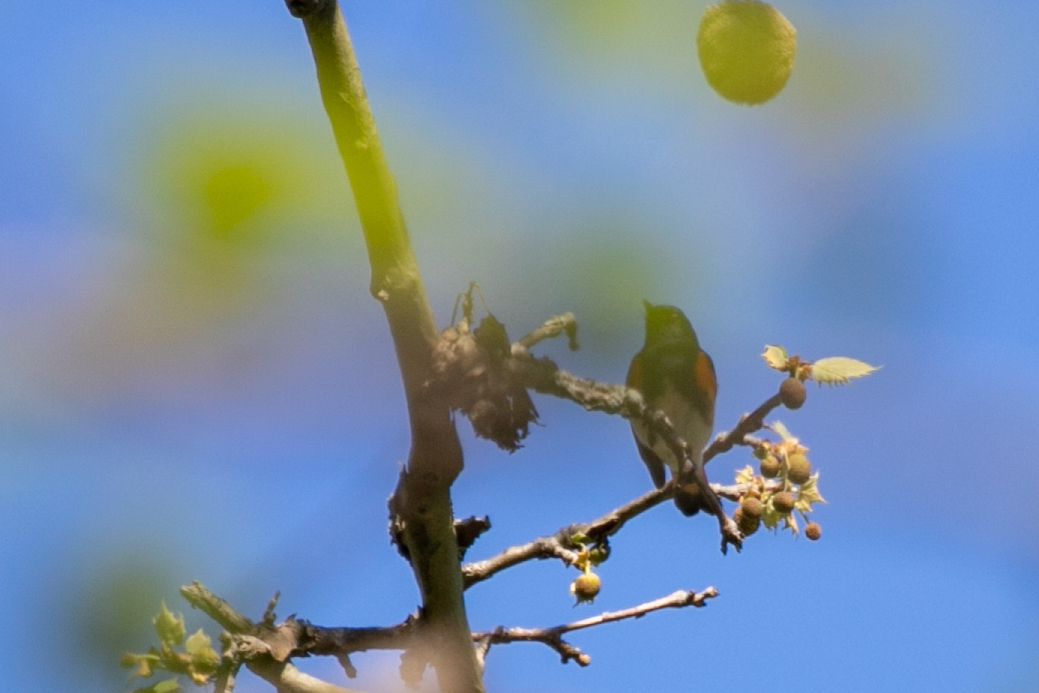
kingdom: Animalia
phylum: Chordata
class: Aves
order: Passeriformes
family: Parulidae
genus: Setophaga
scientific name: Setophaga ruticilla
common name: American redstart
